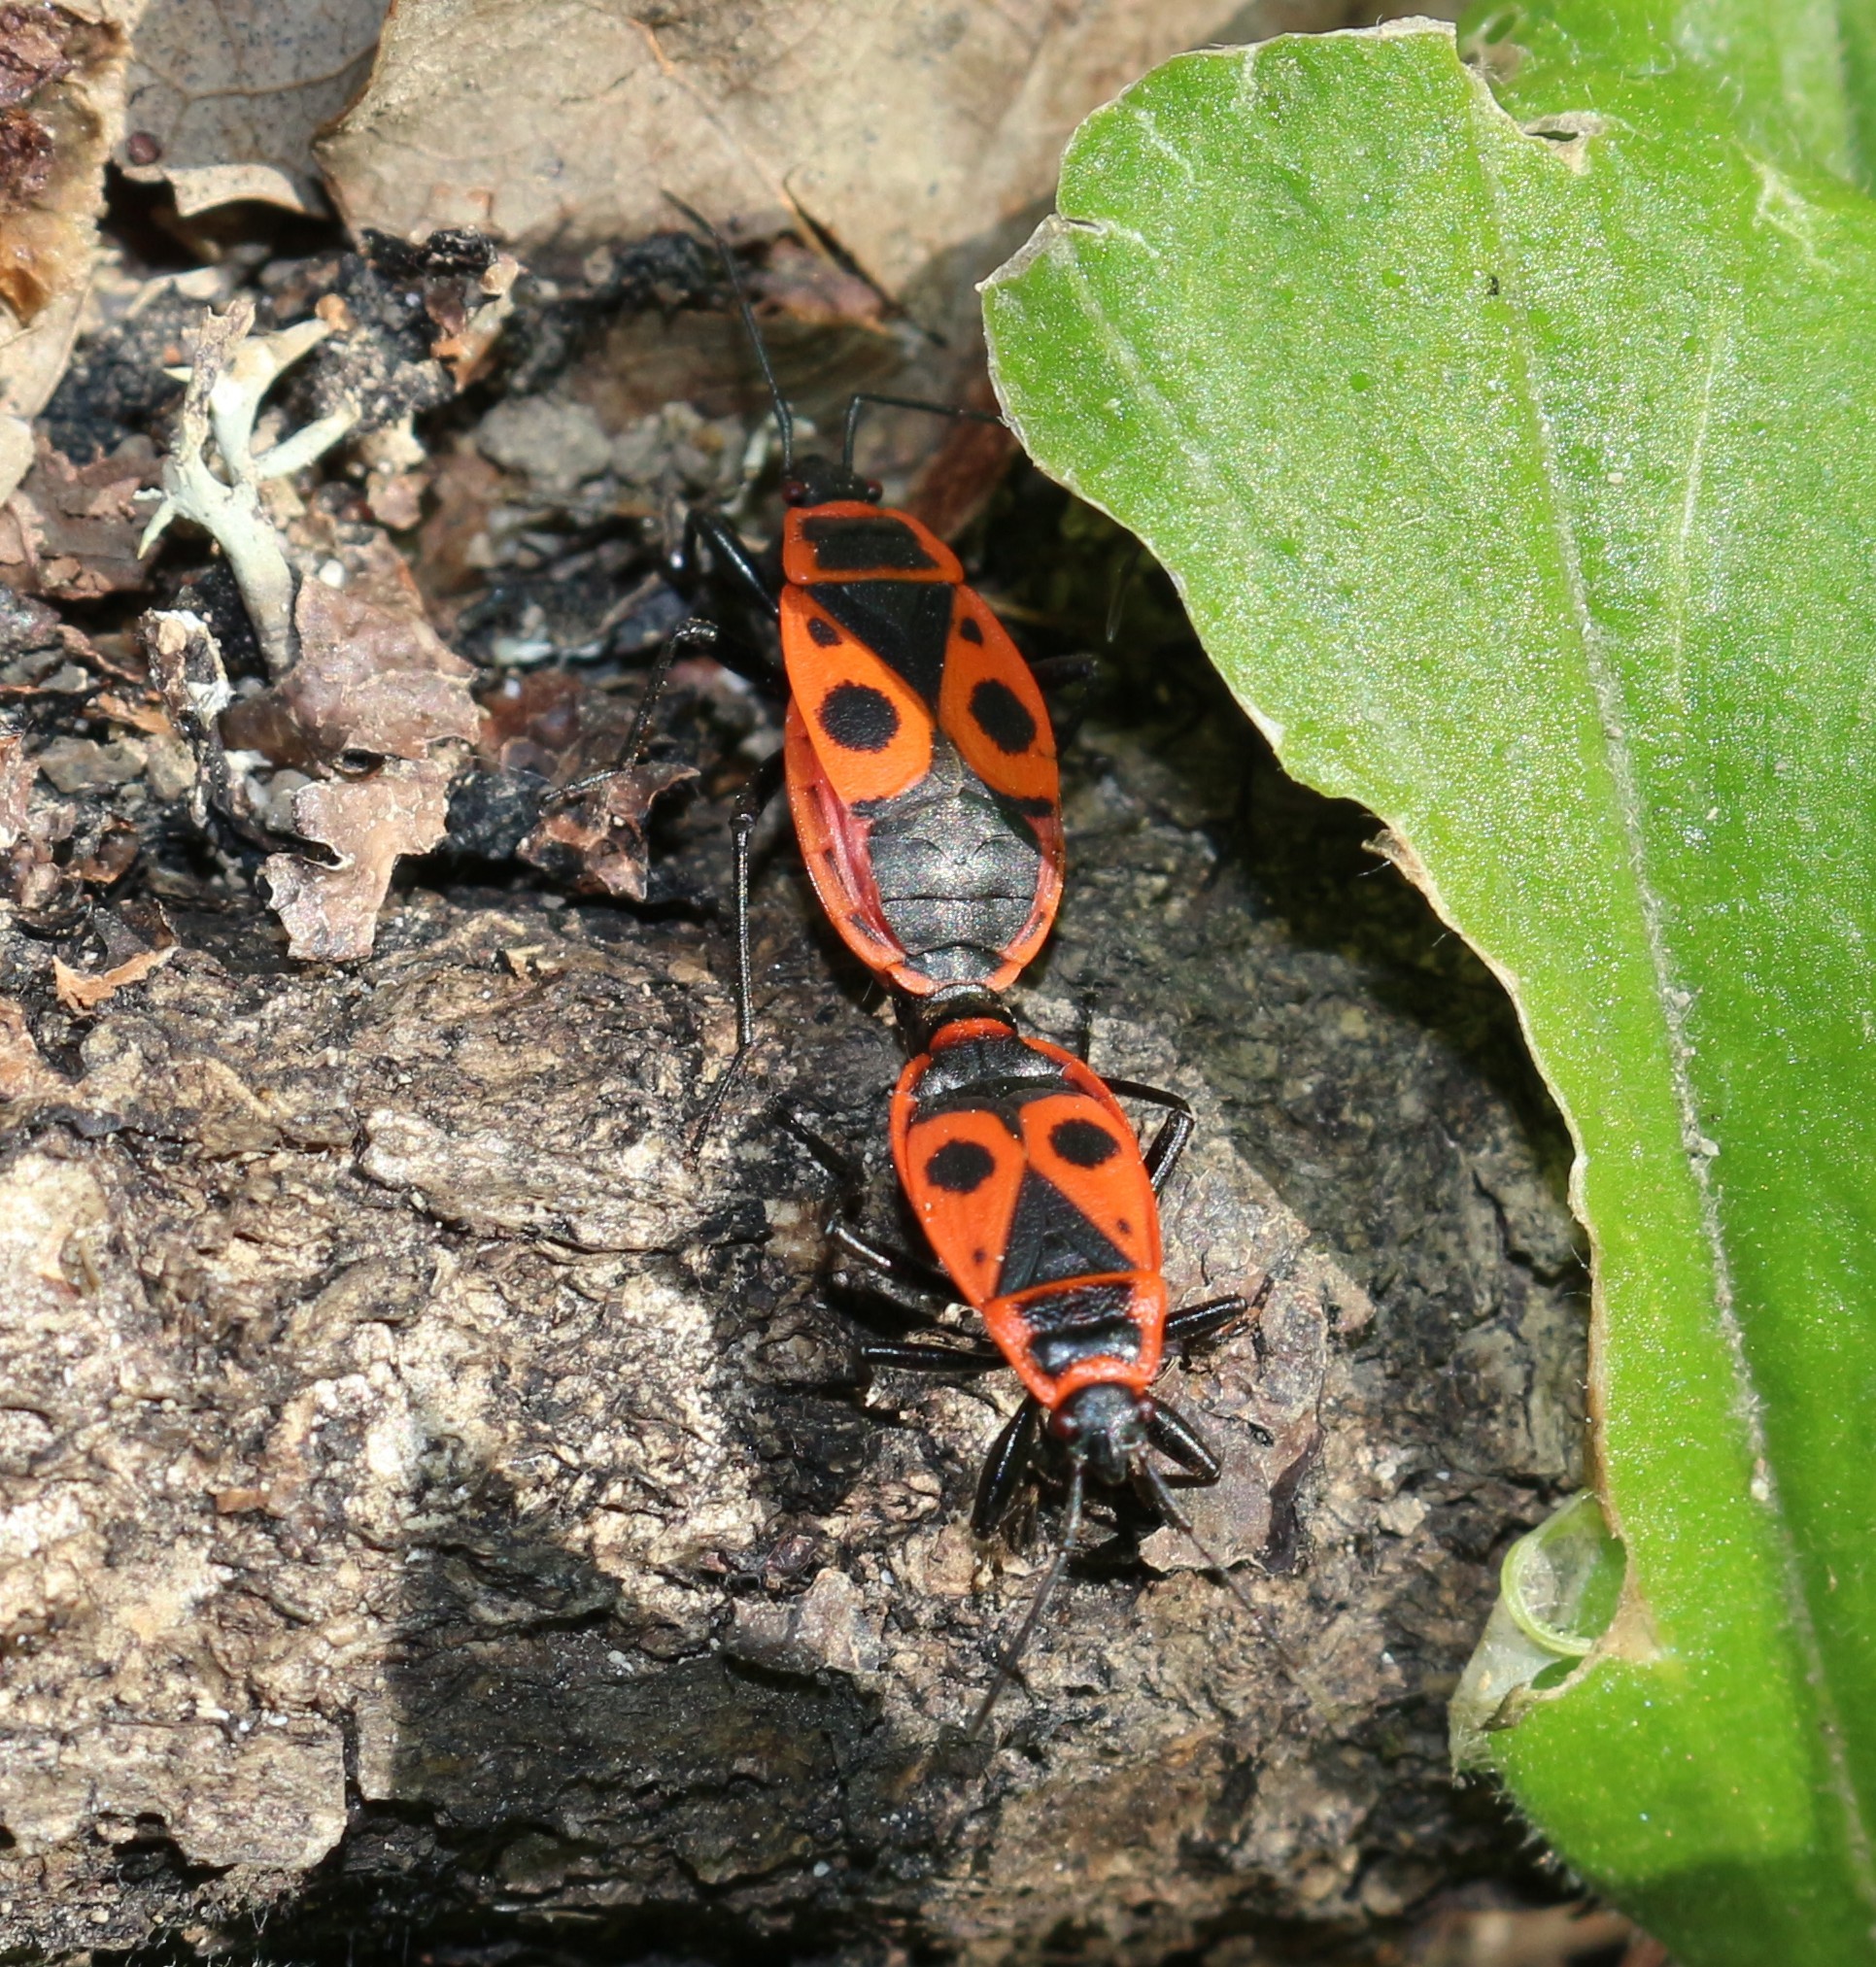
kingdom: Animalia
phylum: Arthropoda
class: Insecta
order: Hemiptera
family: Pyrrhocoridae
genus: Pyrrhocoris
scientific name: Pyrrhocoris apterus
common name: Firebug
